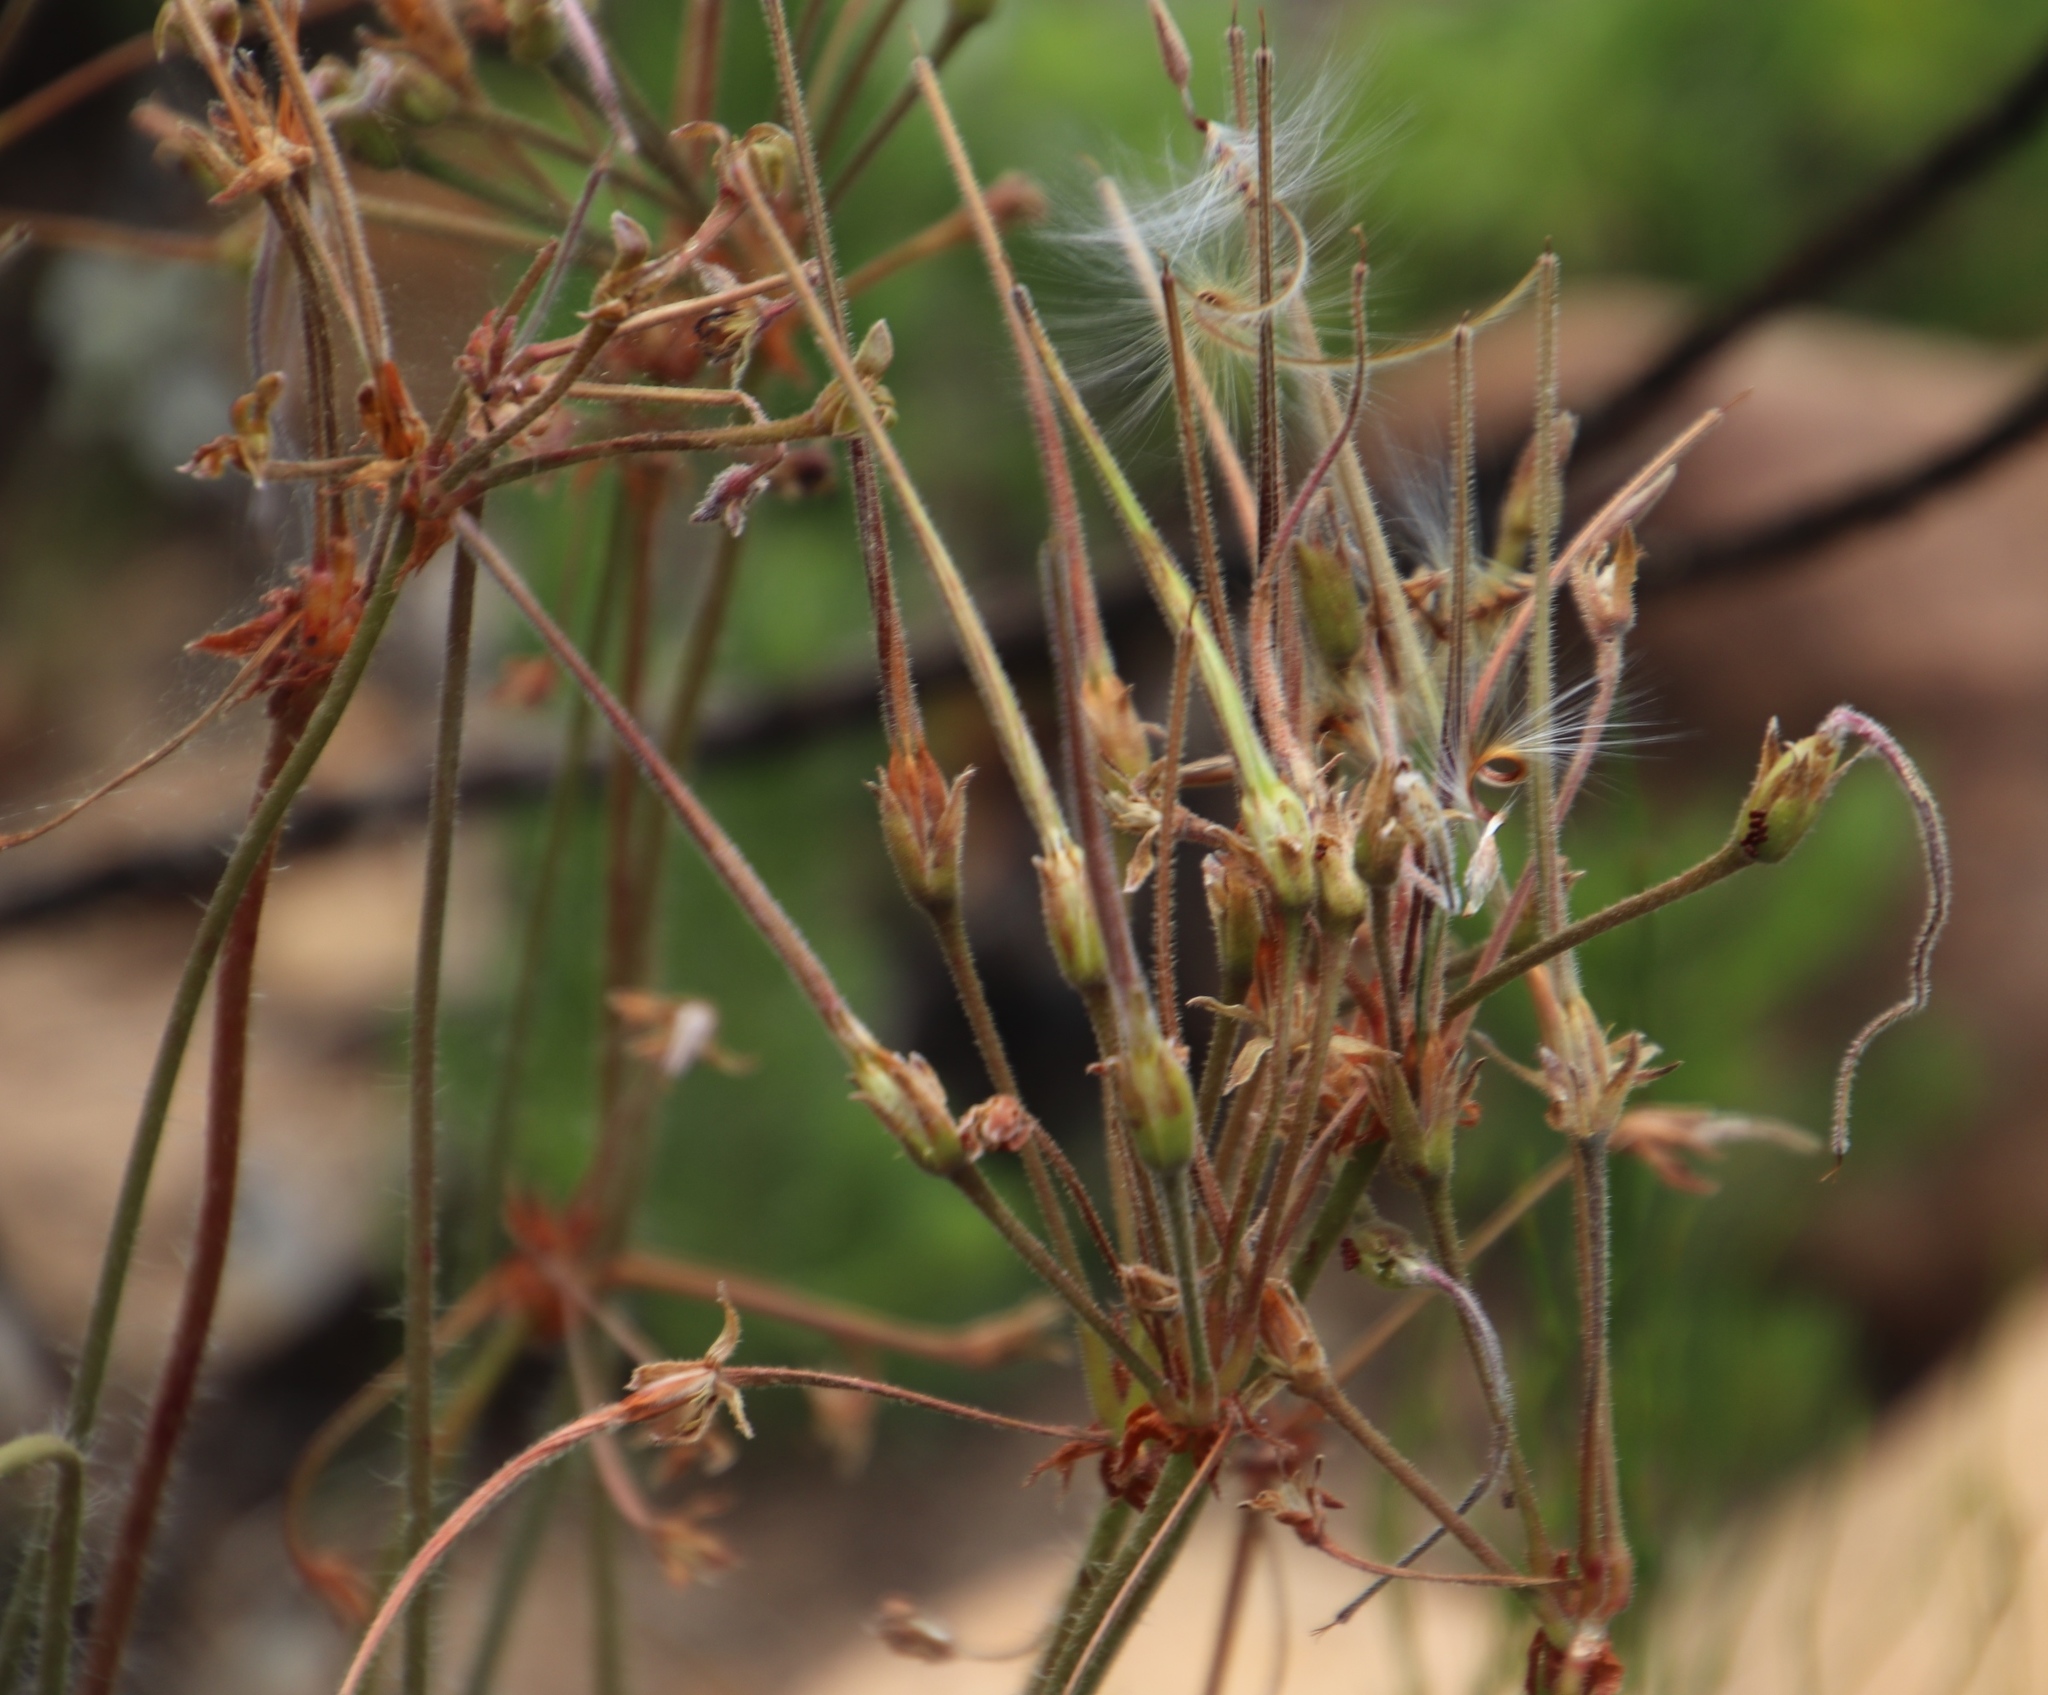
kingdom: Plantae
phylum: Tracheophyta
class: Magnoliopsida
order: Geraniales
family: Geraniaceae
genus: Pelargonium
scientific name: Pelargonium triste
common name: Night-scent pelargonium
